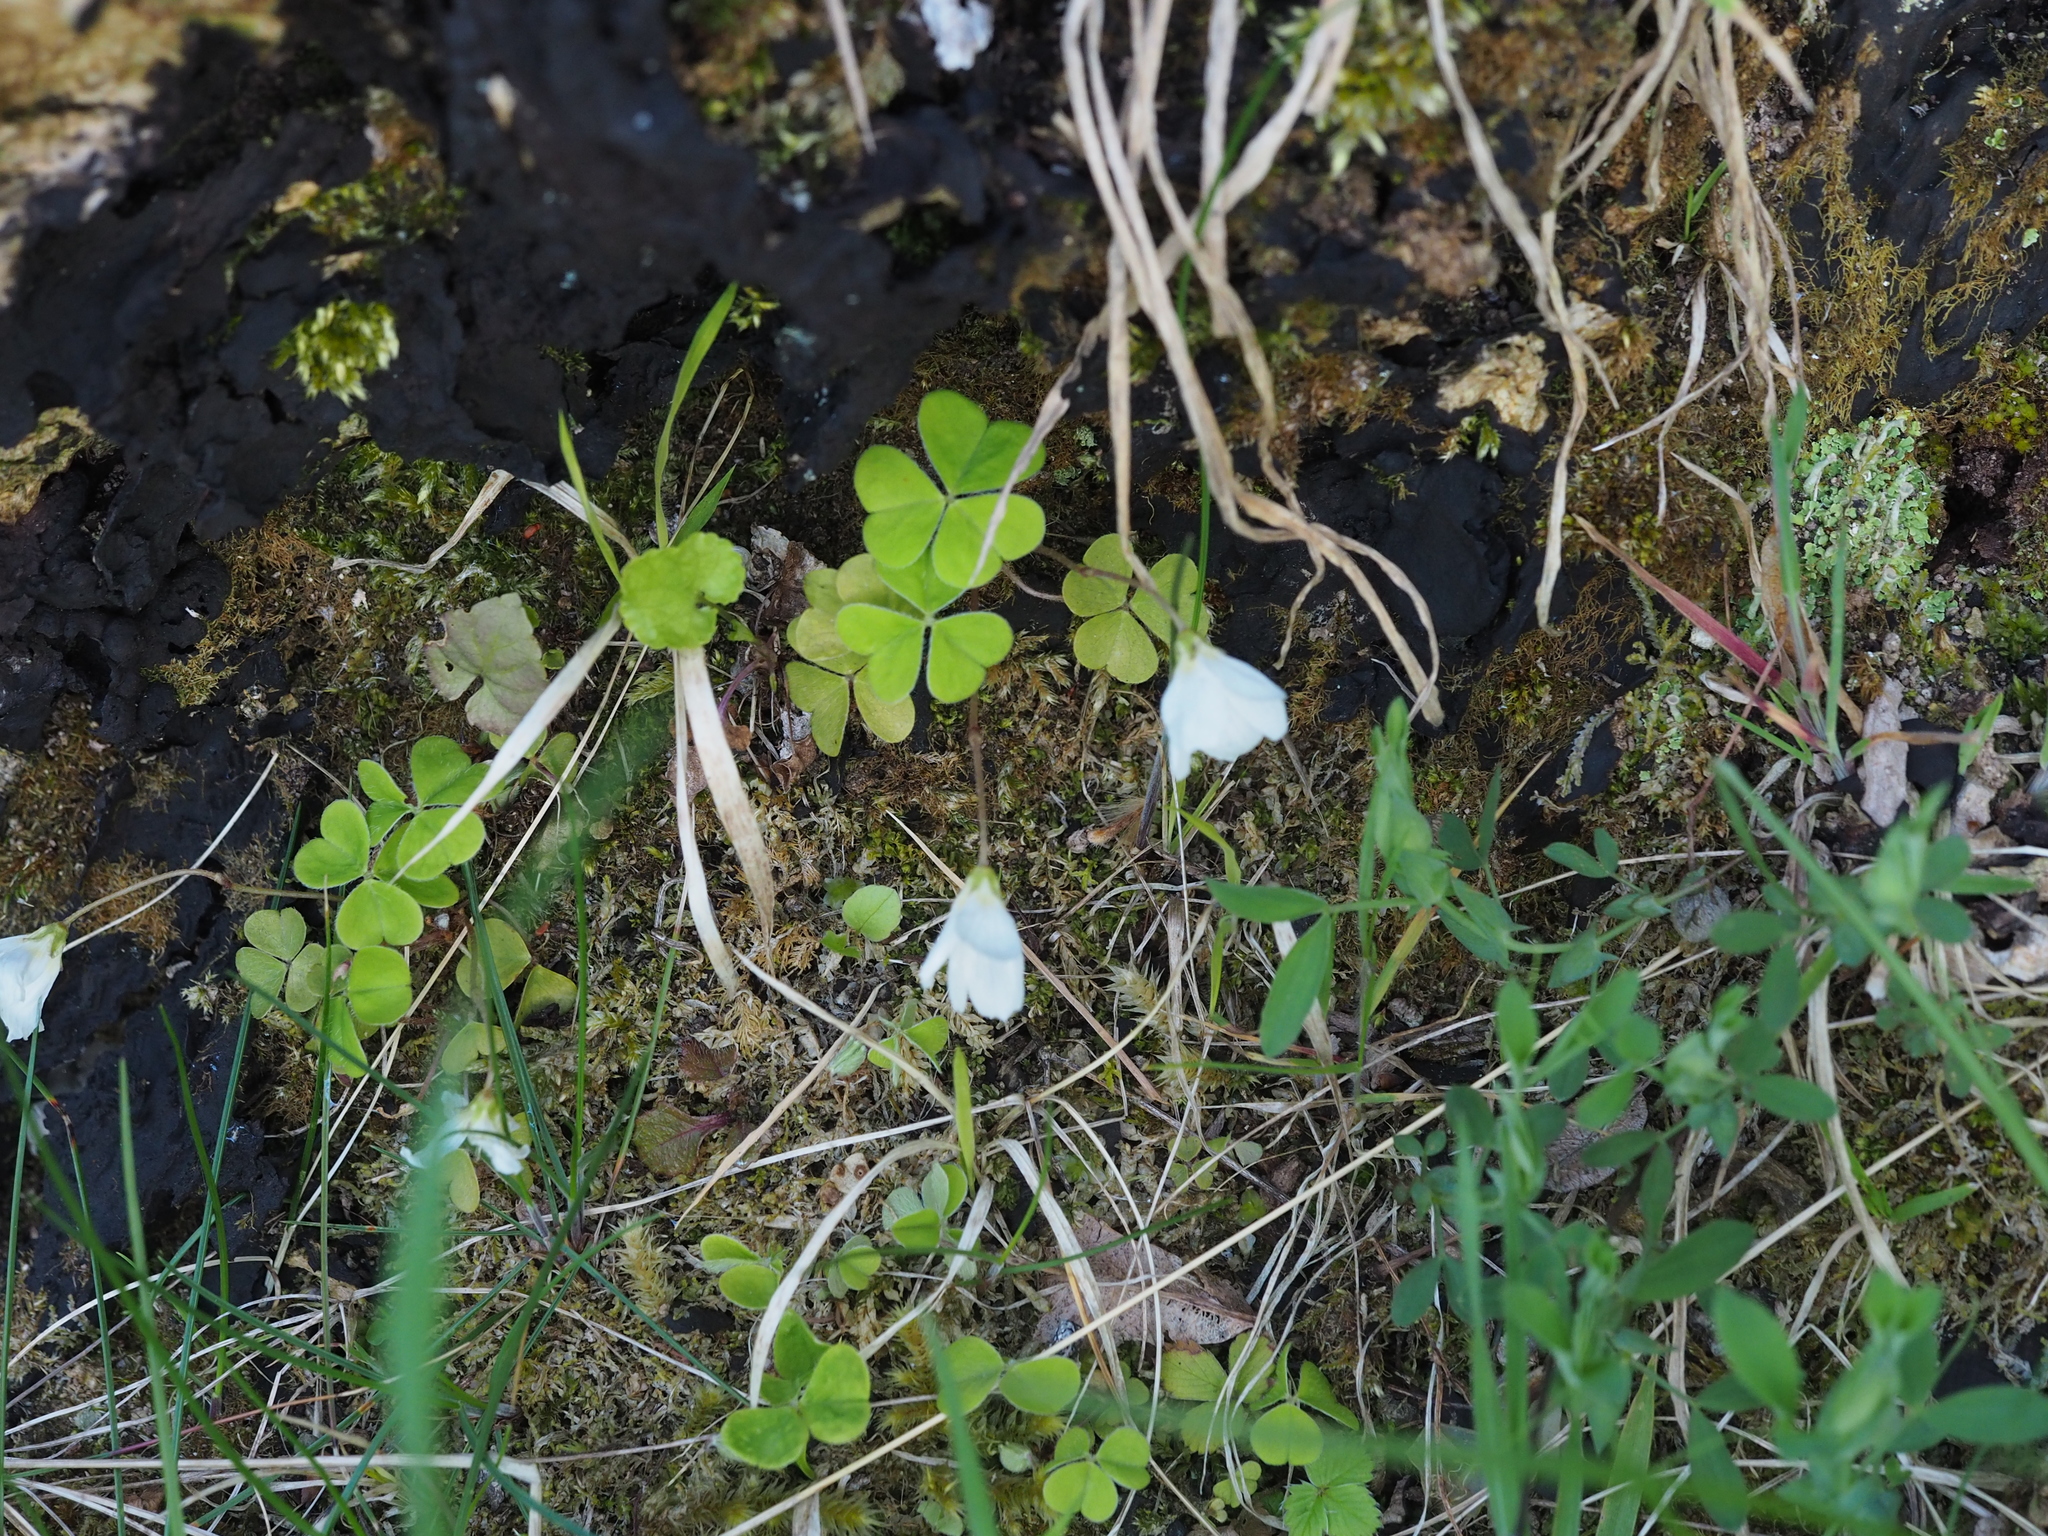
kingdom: Plantae
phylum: Tracheophyta
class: Magnoliopsida
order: Oxalidales
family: Oxalidaceae
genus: Oxalis
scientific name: Oxalis acetosella
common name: Wood-sorrel
